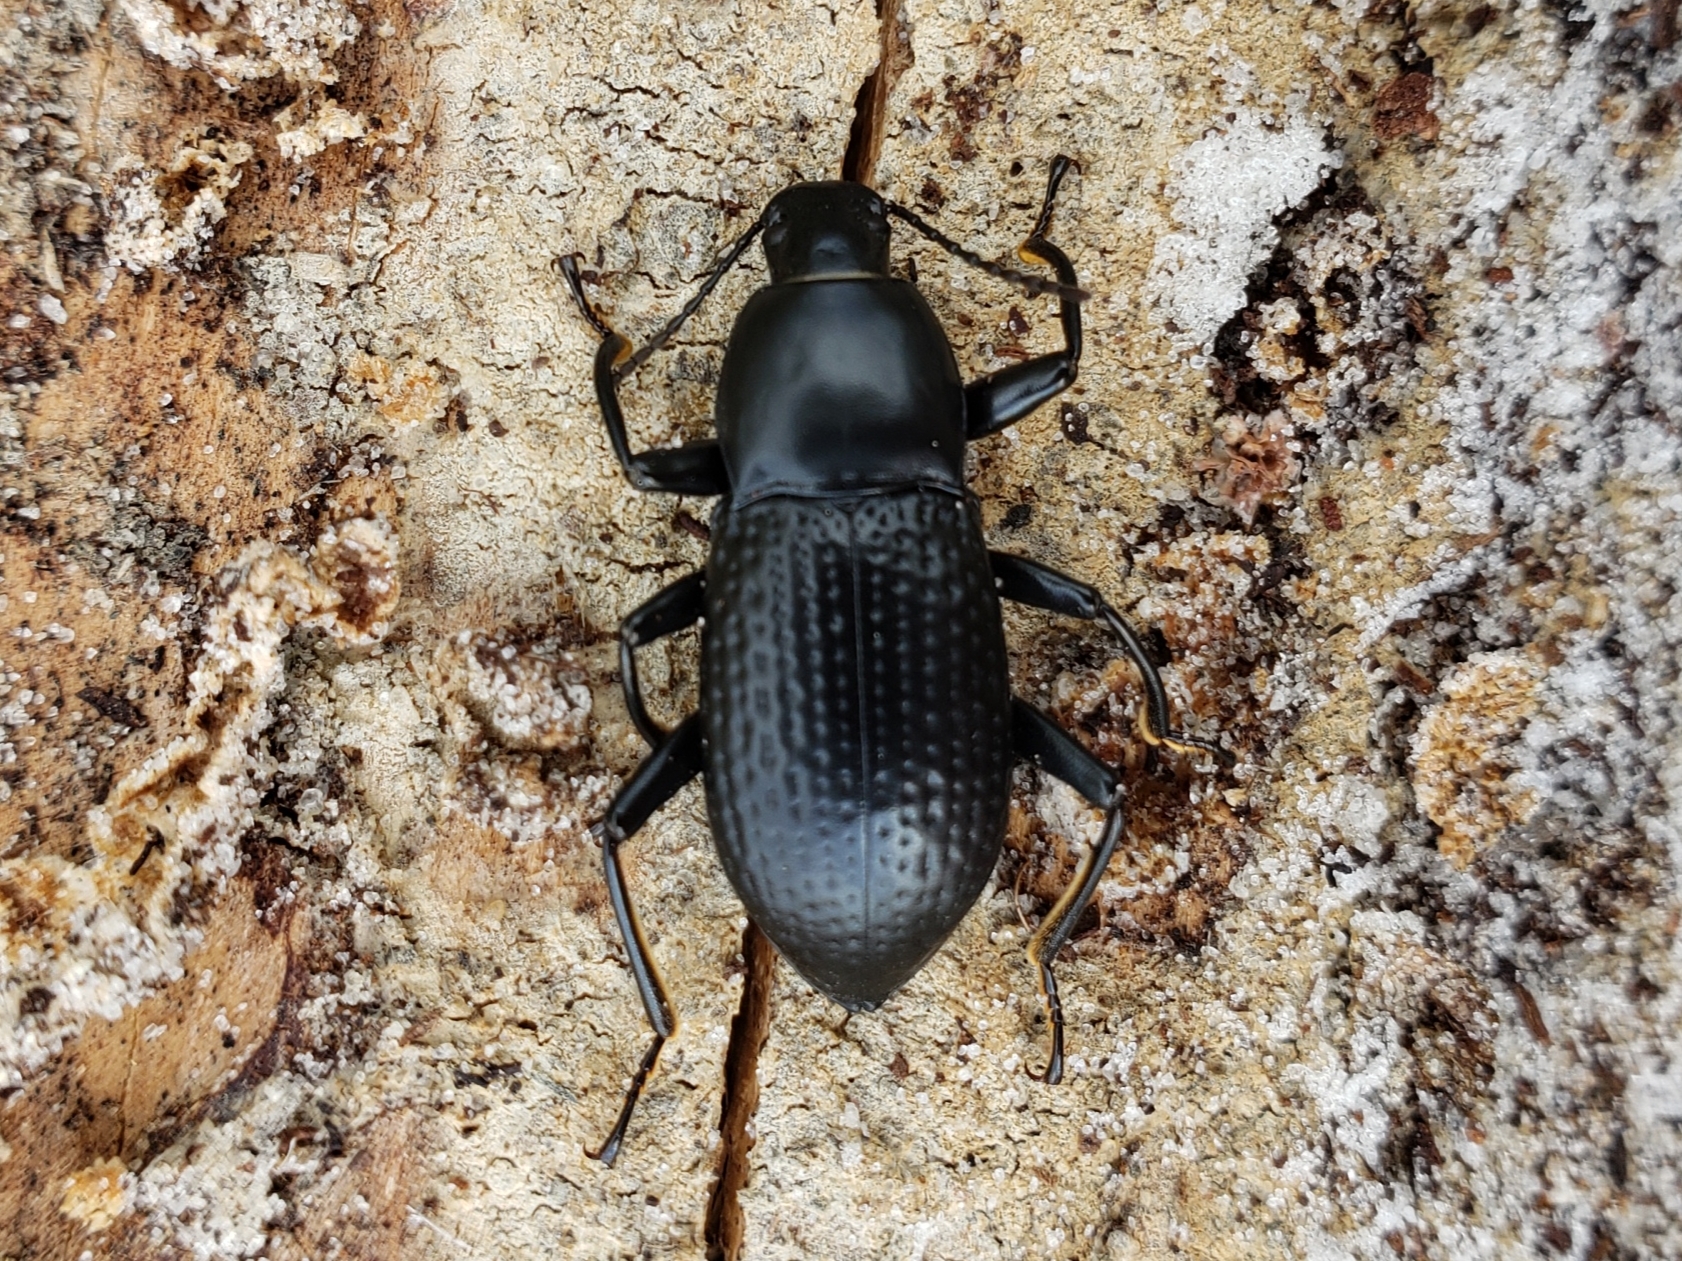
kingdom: Animalia
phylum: Arthropoda
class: Insecta
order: Coleoptera
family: Tenebrionidae
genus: Polopinus
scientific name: Polopinus
